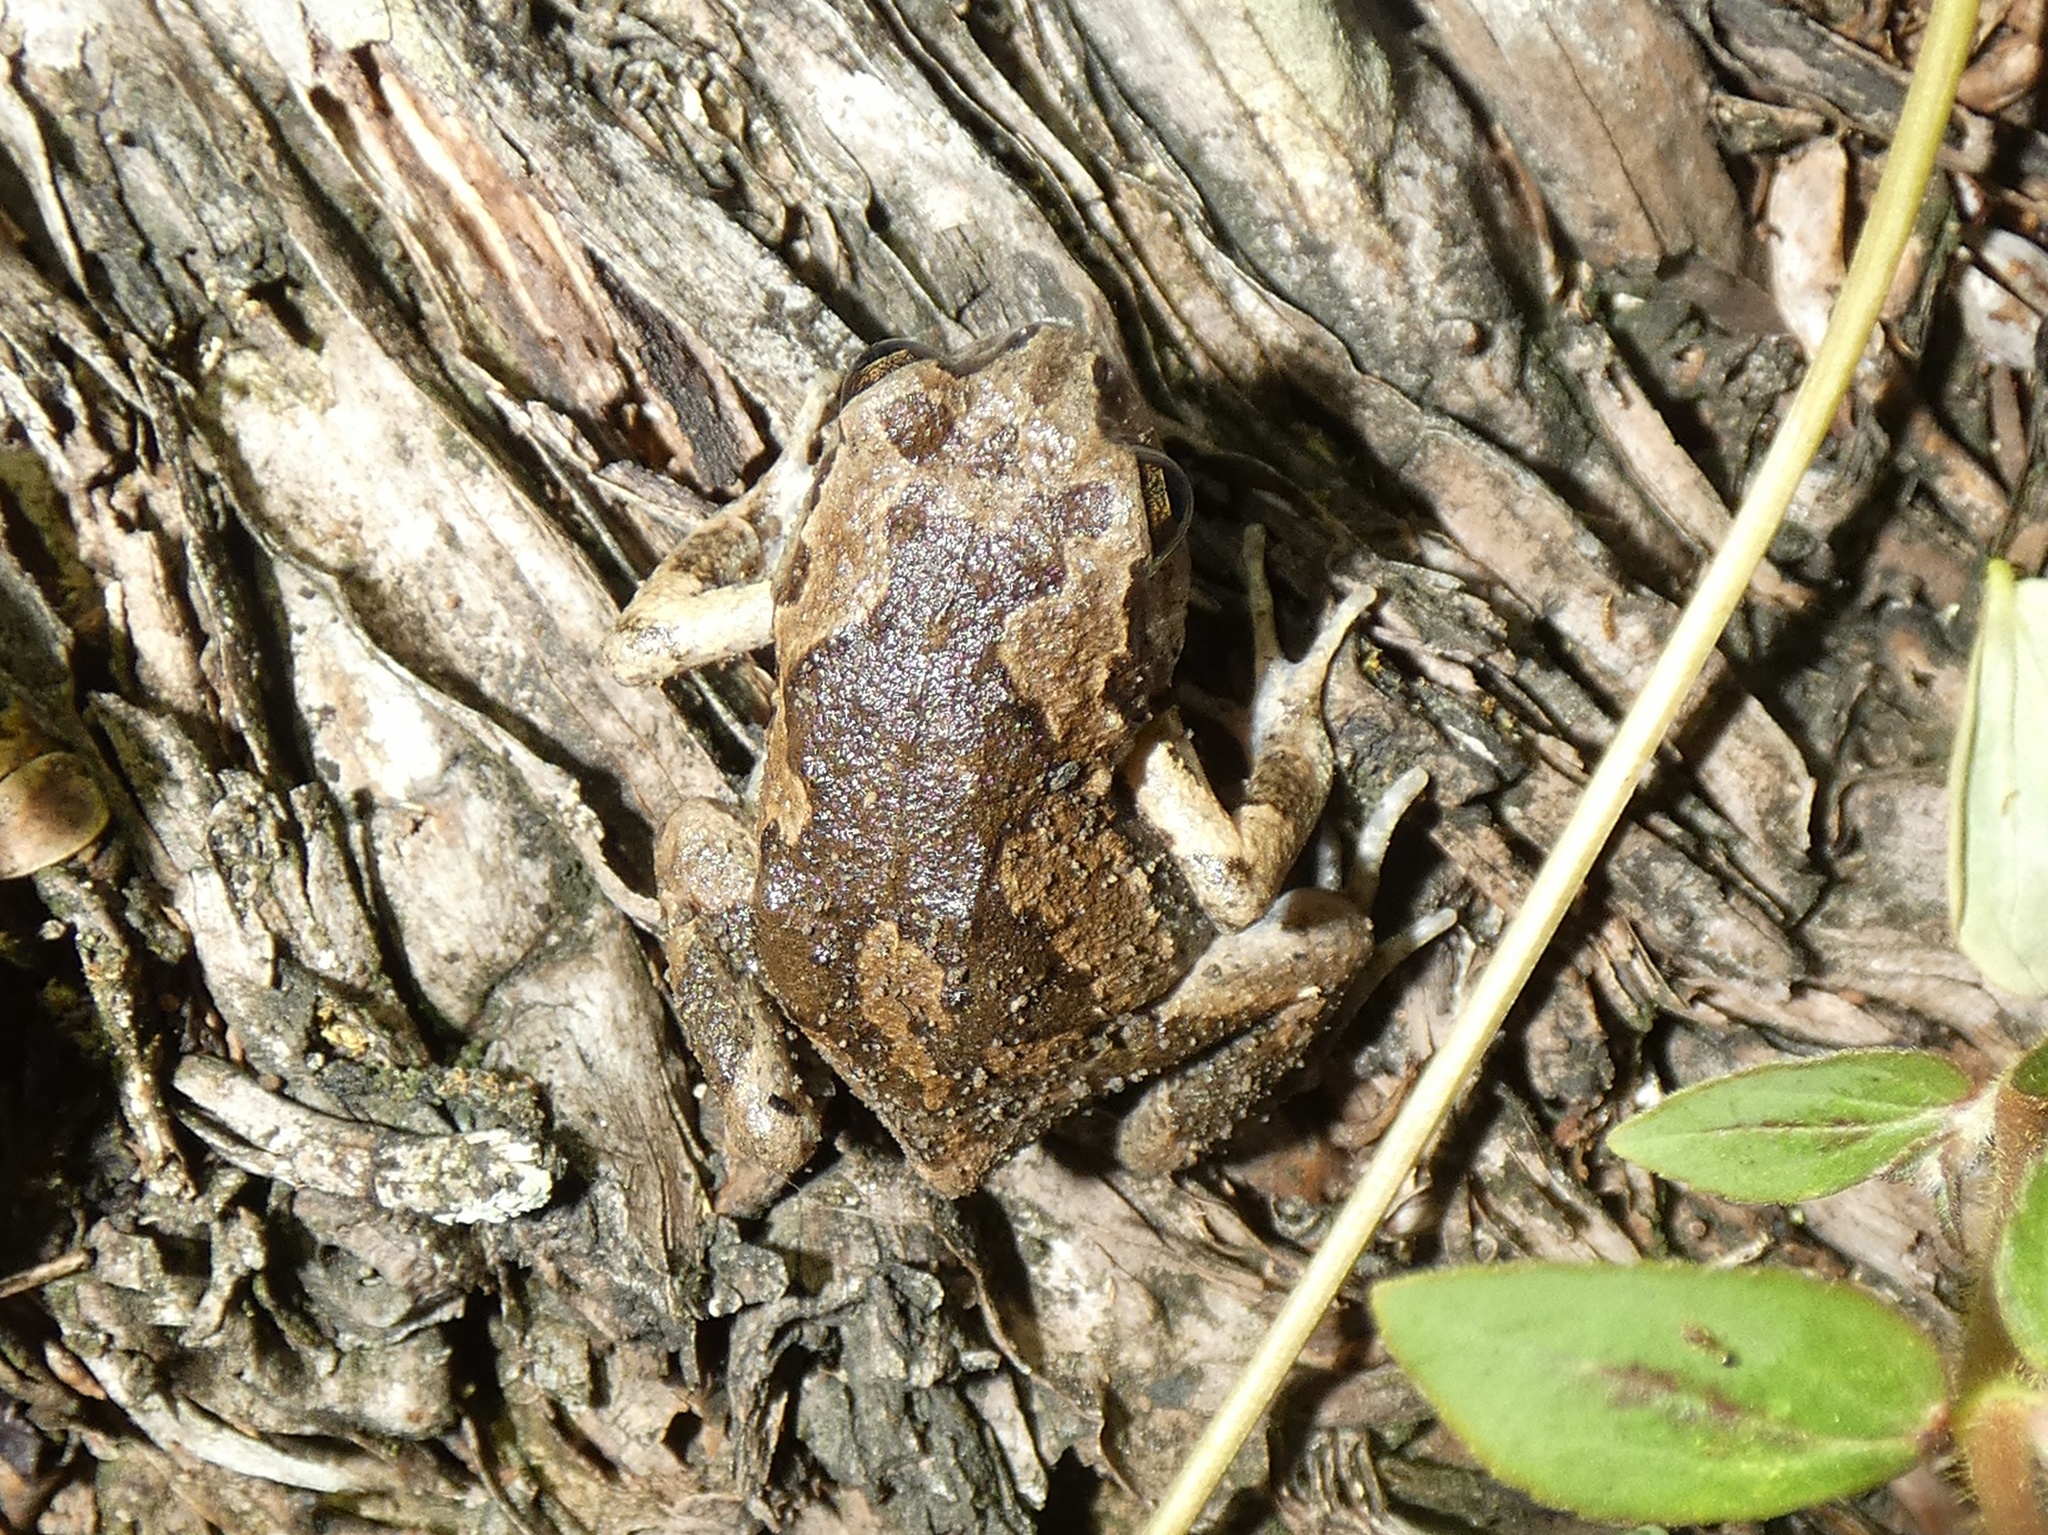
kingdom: Animalia
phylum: Chordata
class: Amphibia
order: Anura
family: Microhylidae
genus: Kaloula
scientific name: Kaloula picta
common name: Painted narrowmouth toad
